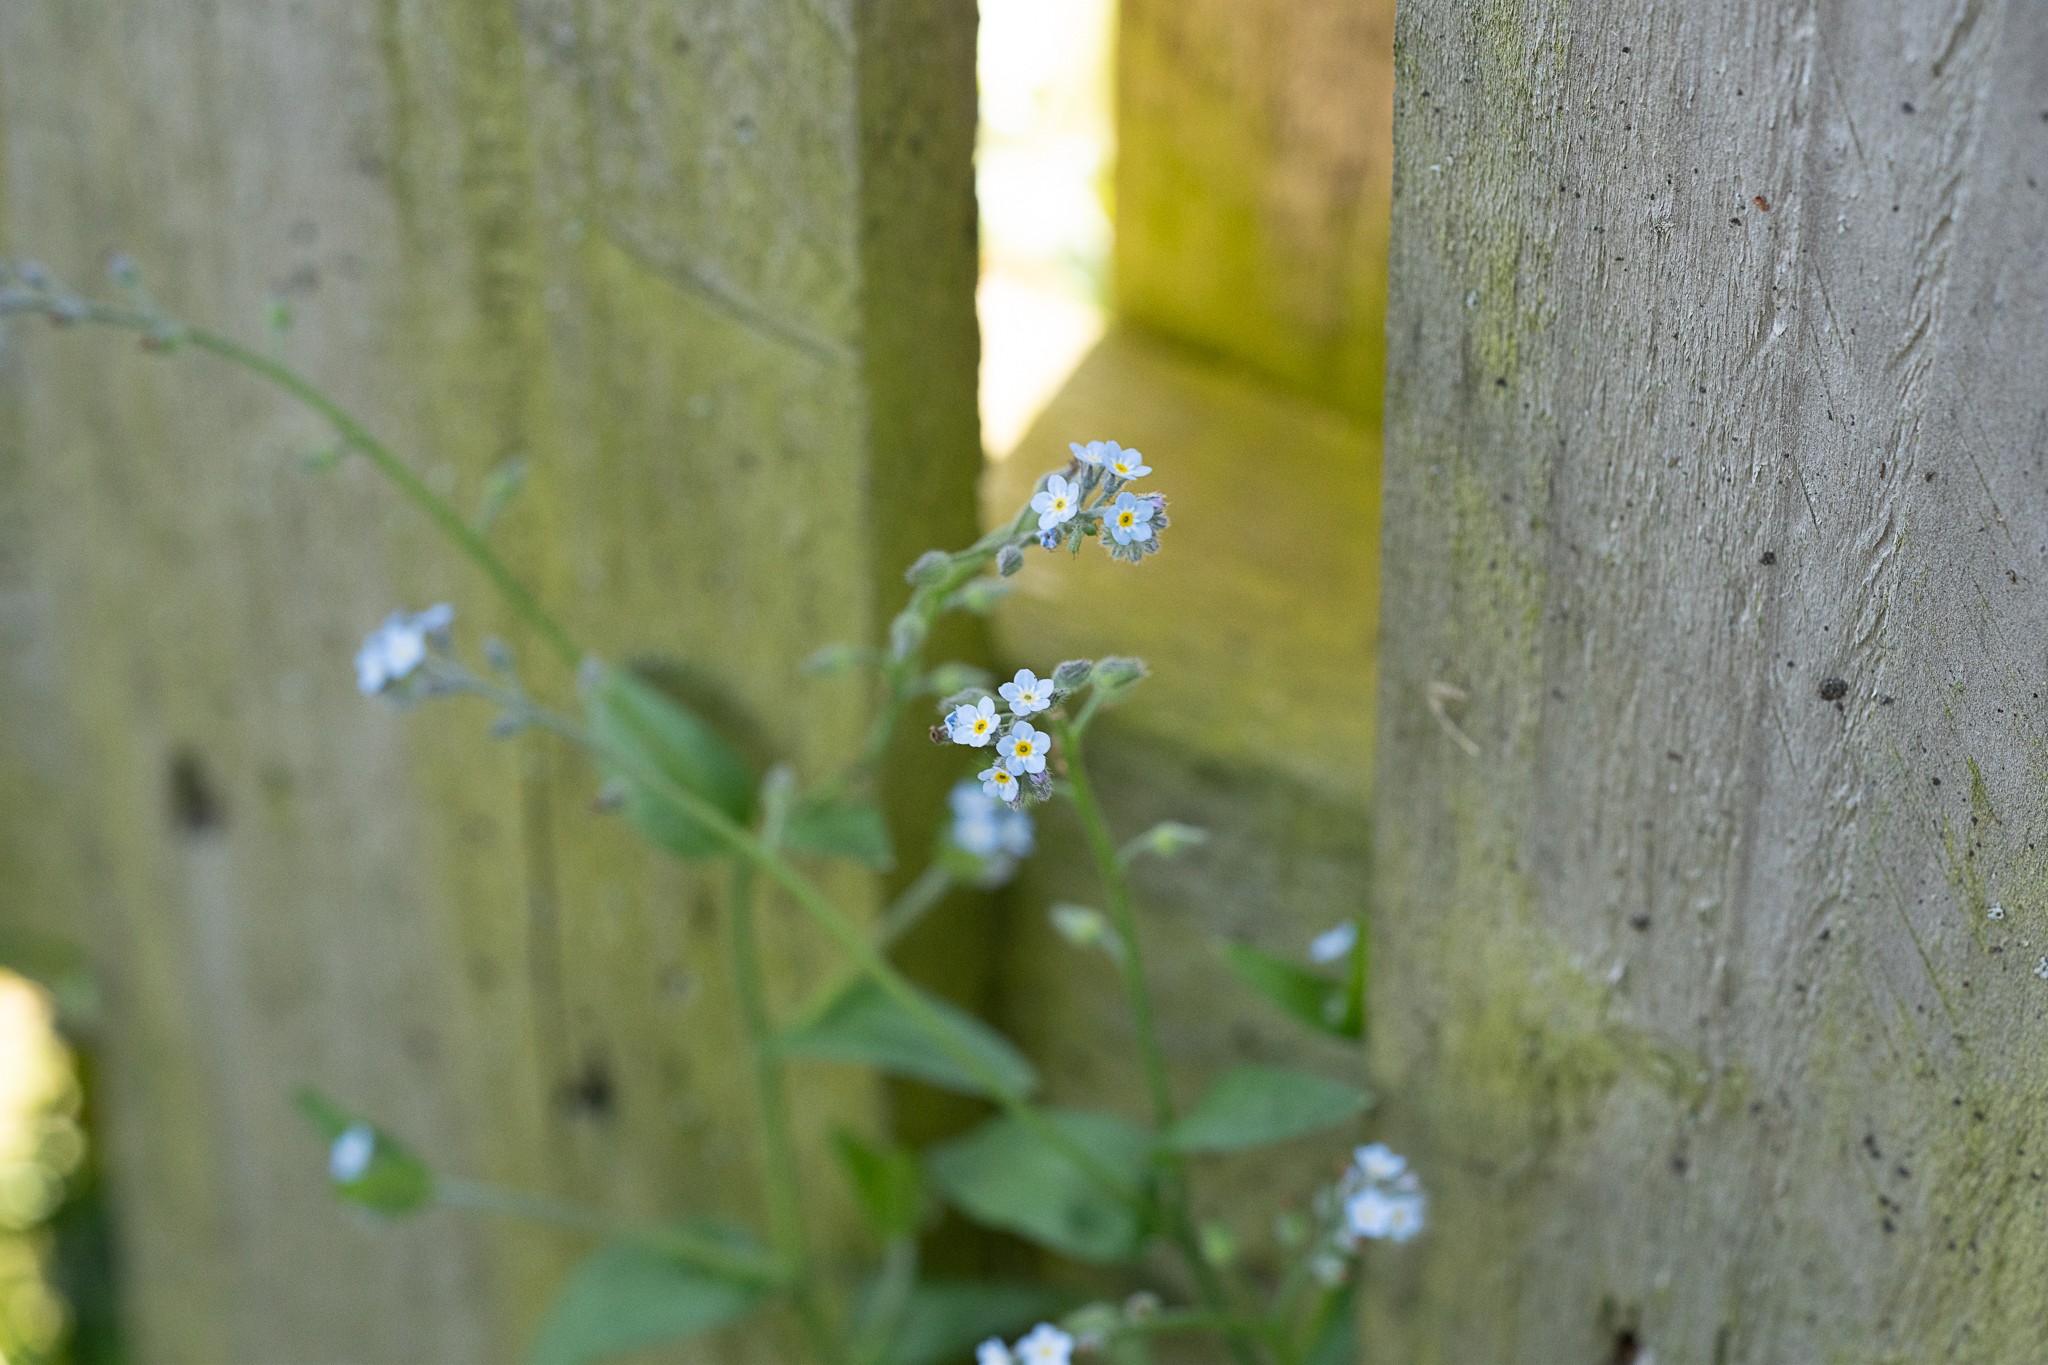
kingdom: Plantae
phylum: Tracheophyta
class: Magnoliopsida
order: Boraginales
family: Boraginaceae
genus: Myosotis
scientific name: Myosotis arvensis
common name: Field forget-me-not
